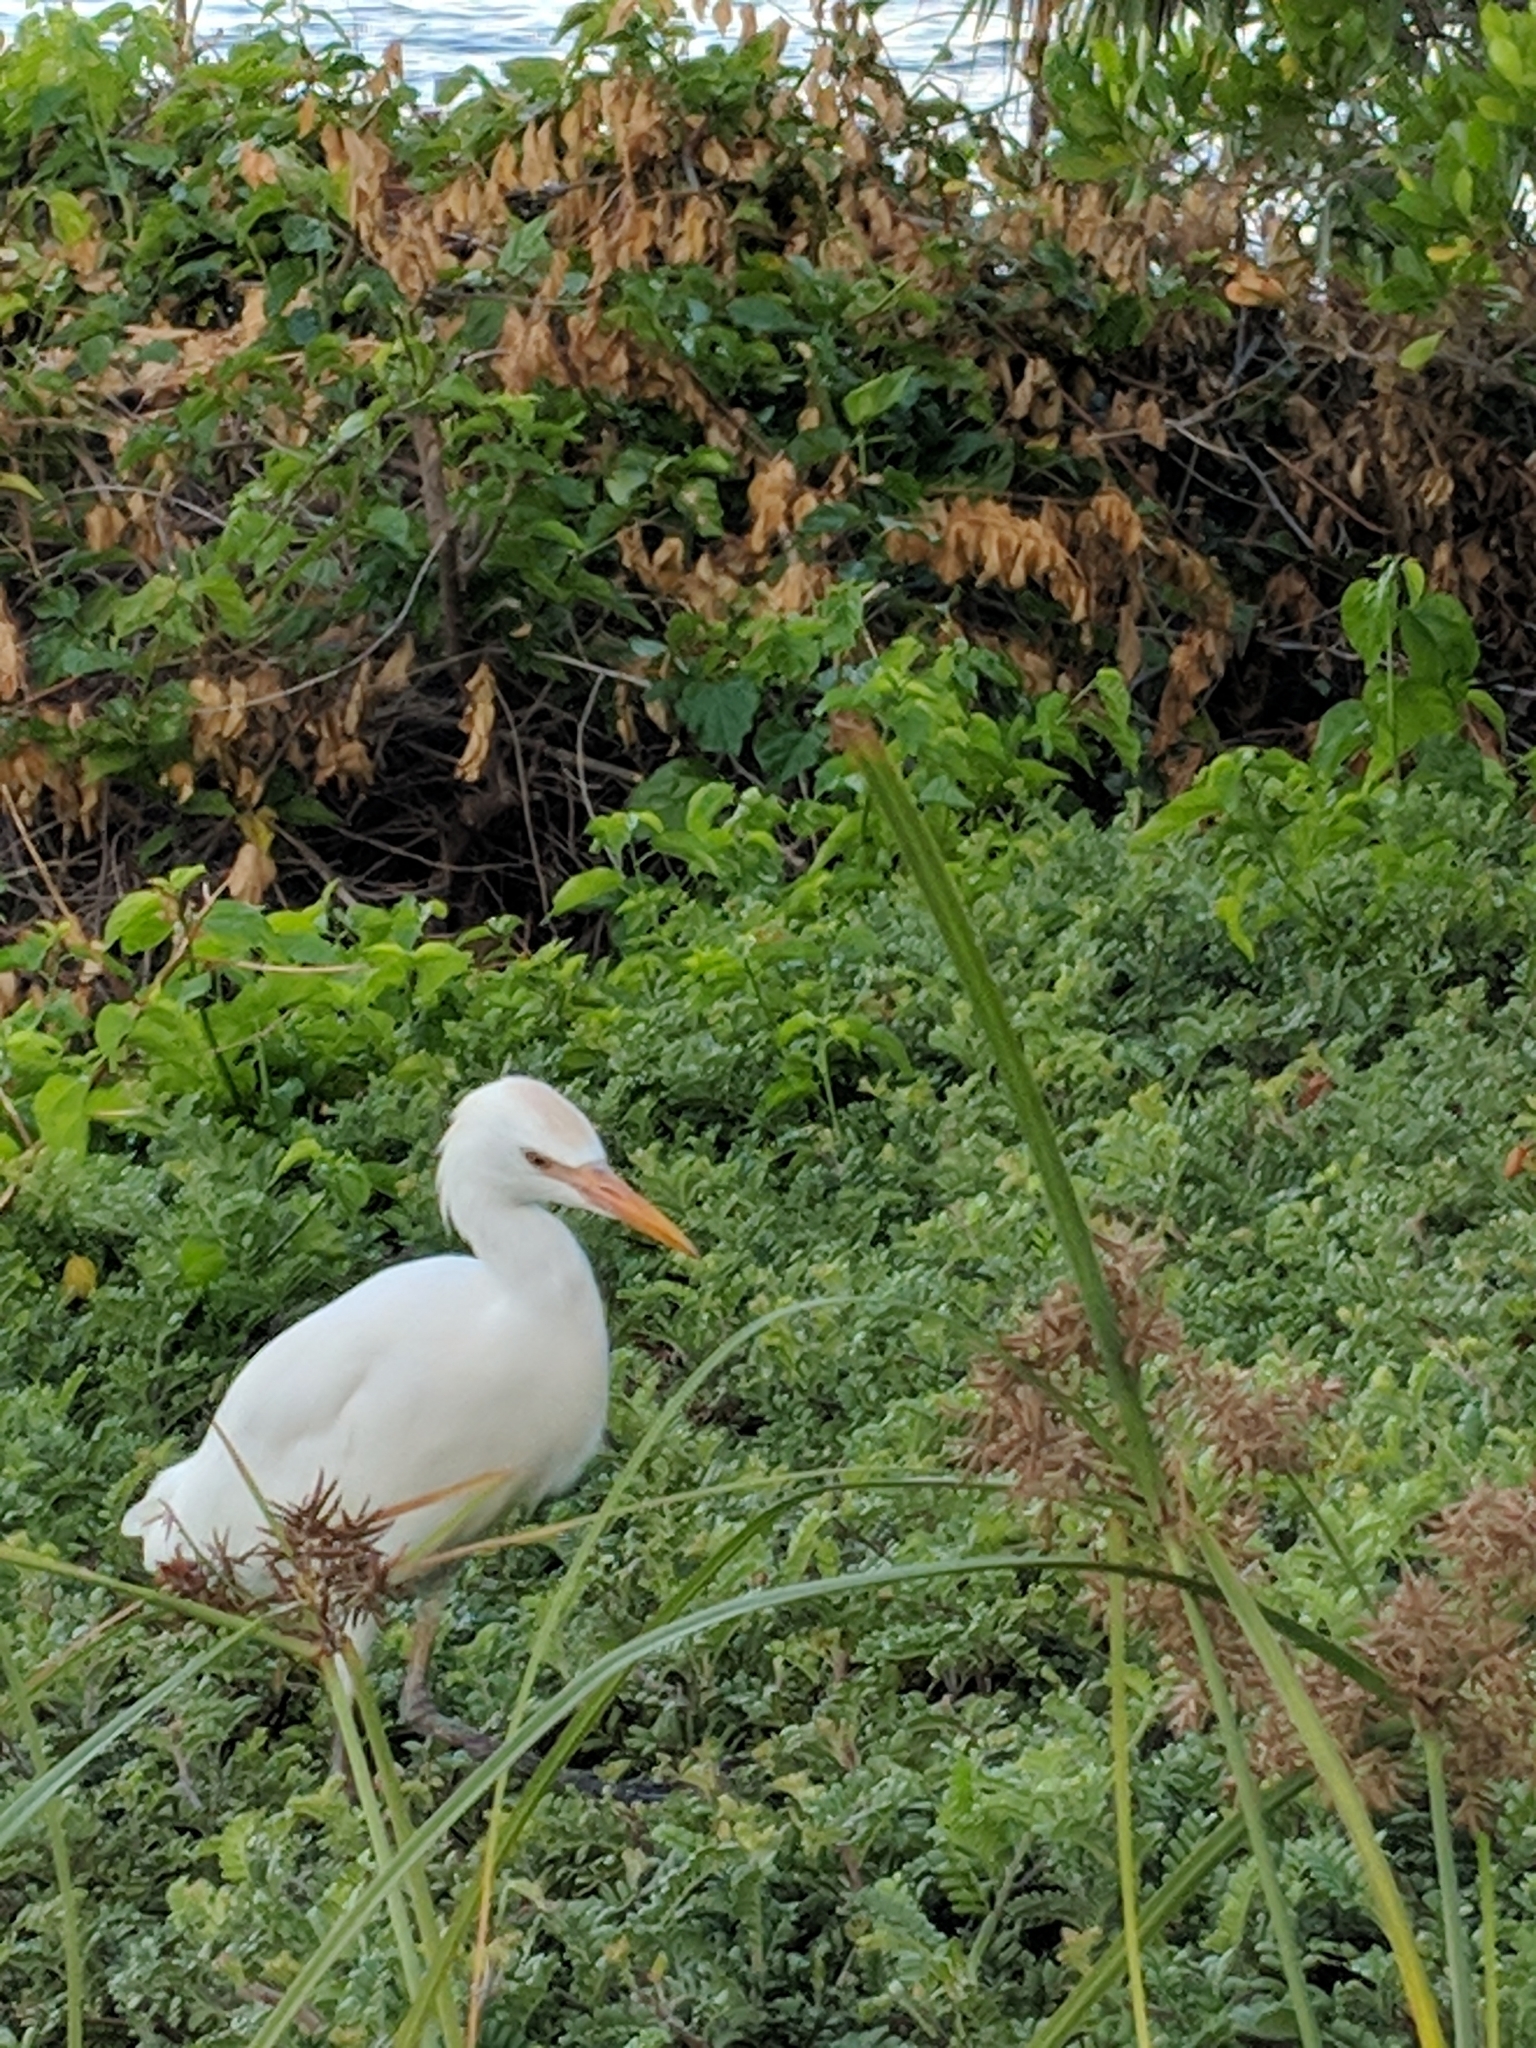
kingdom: Animalia
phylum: Chordata
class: Aves
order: Pelecaniformes
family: Ardeidae
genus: Bubulcus
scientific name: Bubulcus ibis
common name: Cattle egret
